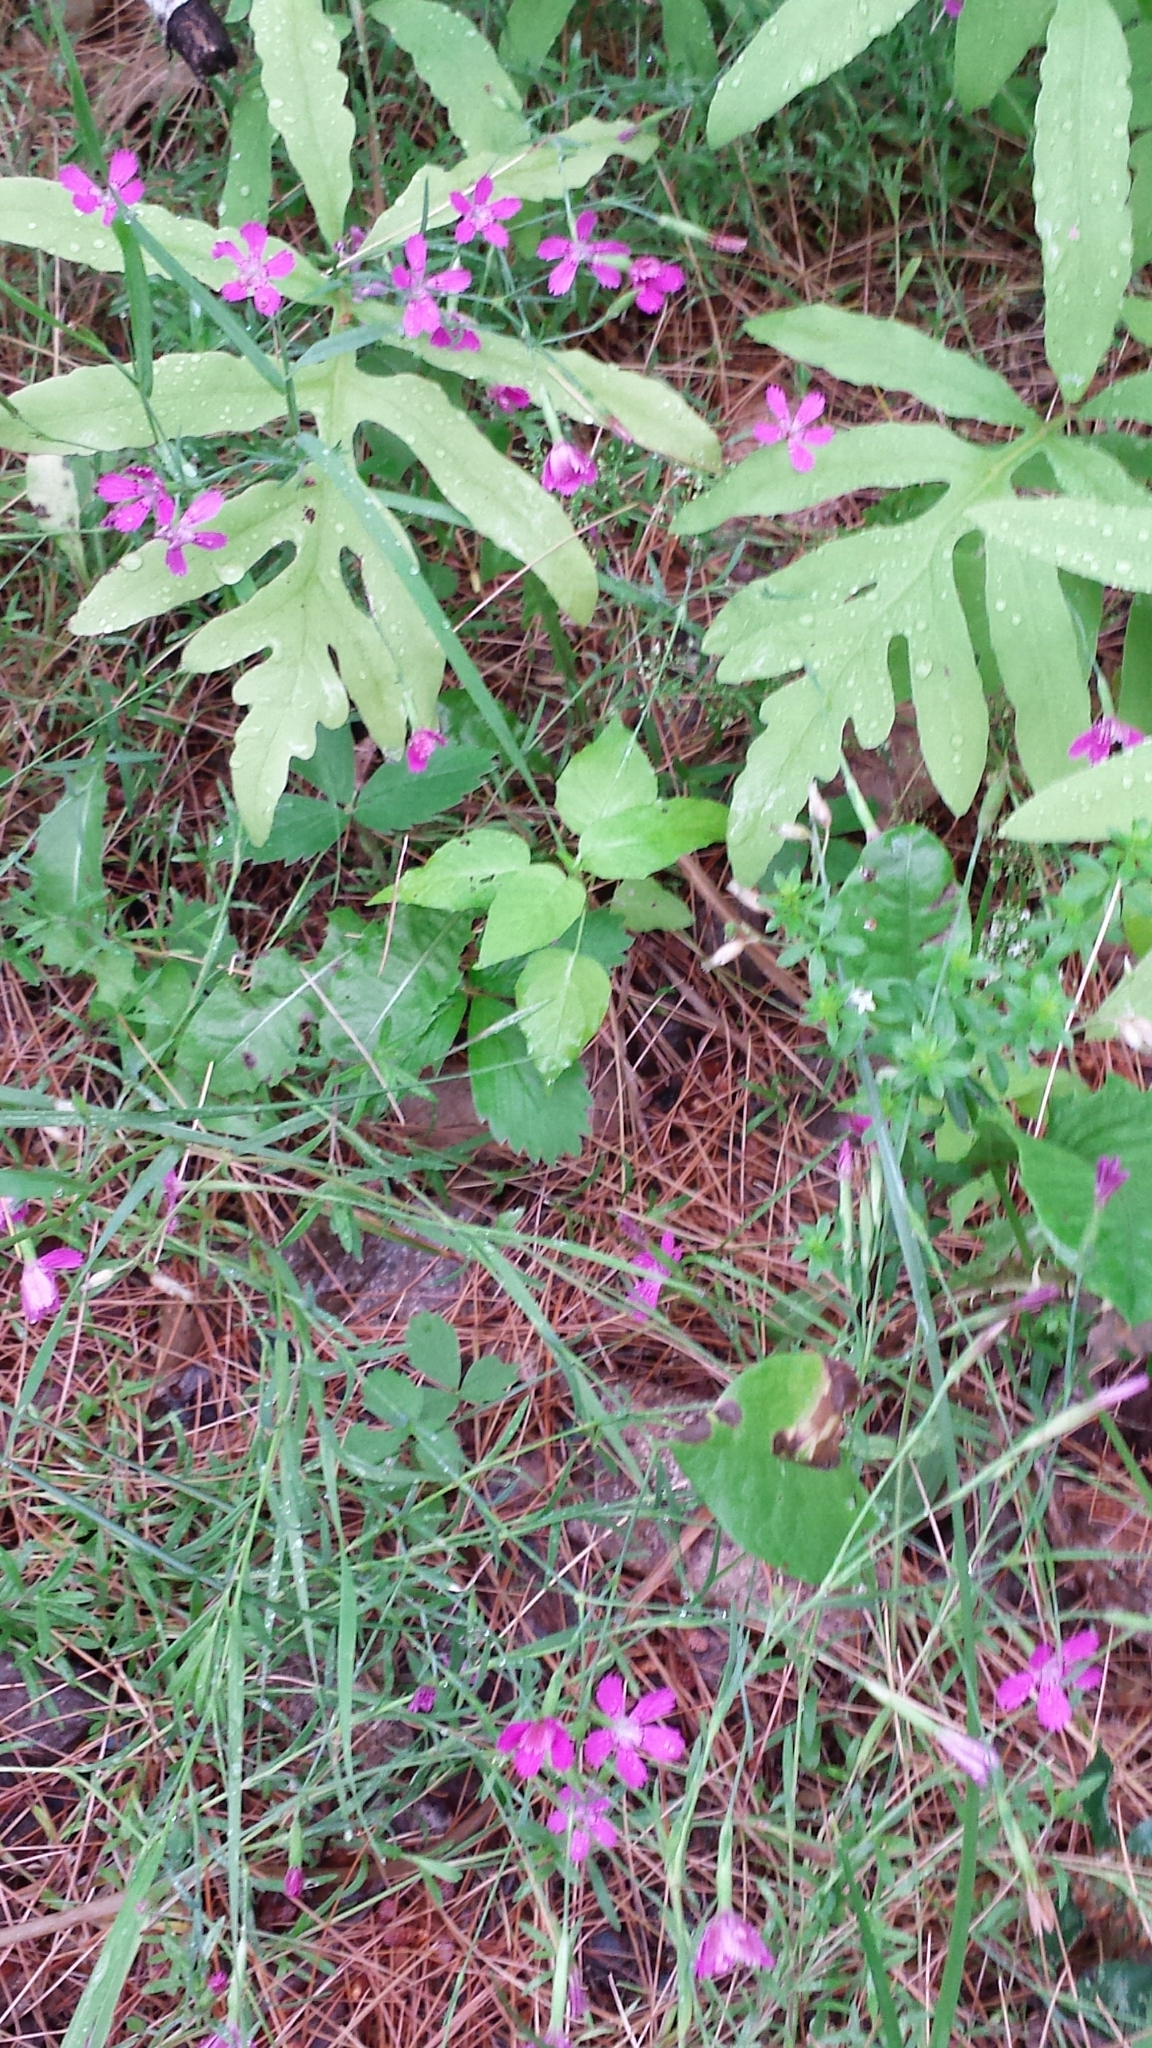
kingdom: Plantae
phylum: Tracheophyta
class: Magnoliopsida
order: Caryophyllales
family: Caryophyllaceae
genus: Dianthus
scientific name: Dianthus deltoides
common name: Maiden pink
